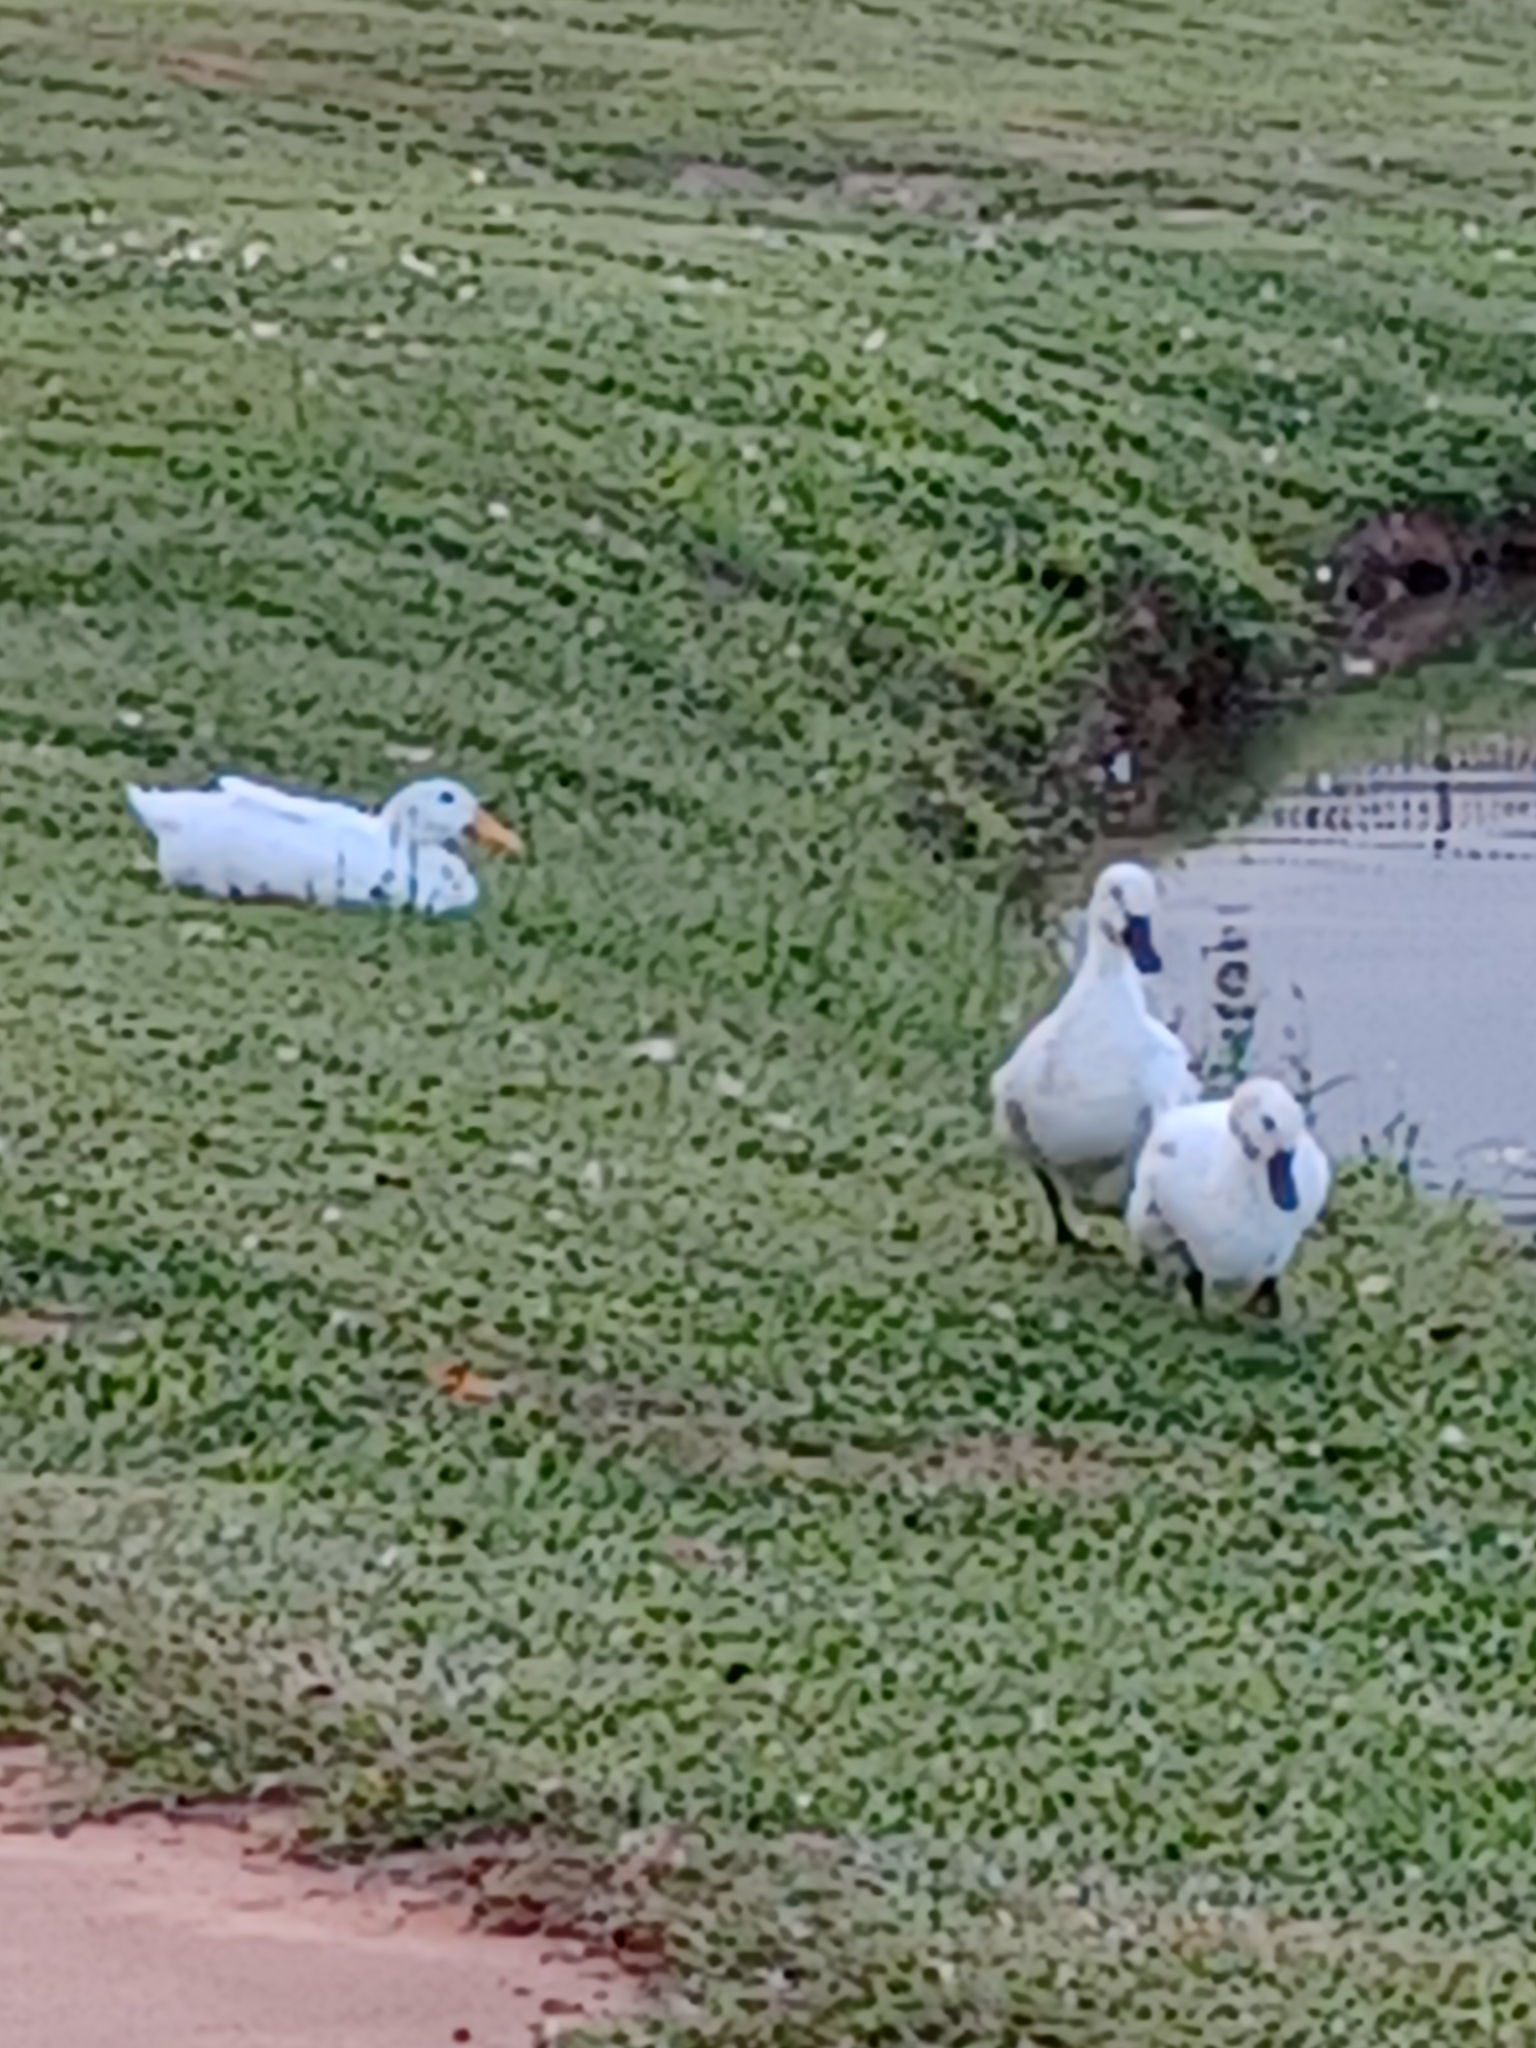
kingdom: Animalia
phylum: Chordata
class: Aves
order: Anseriformes
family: Anatidae
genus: Anas
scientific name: Anas platyrhynchos
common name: Mallard
